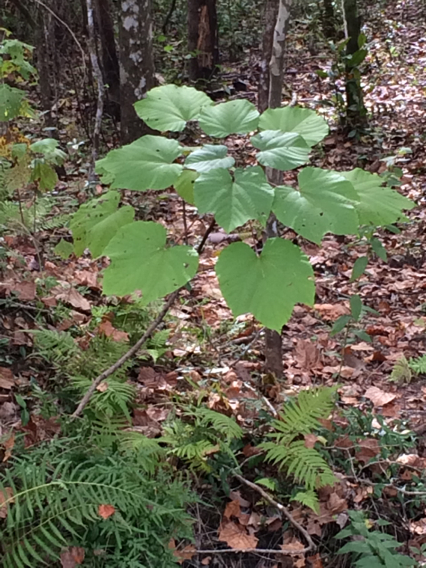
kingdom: Plantae
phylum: Tracheophyta
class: Magnoliopsida
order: Malpighiales
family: Euphorbiaceae
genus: Vernicia
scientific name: Vernicia fordii
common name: Tungoil tree
